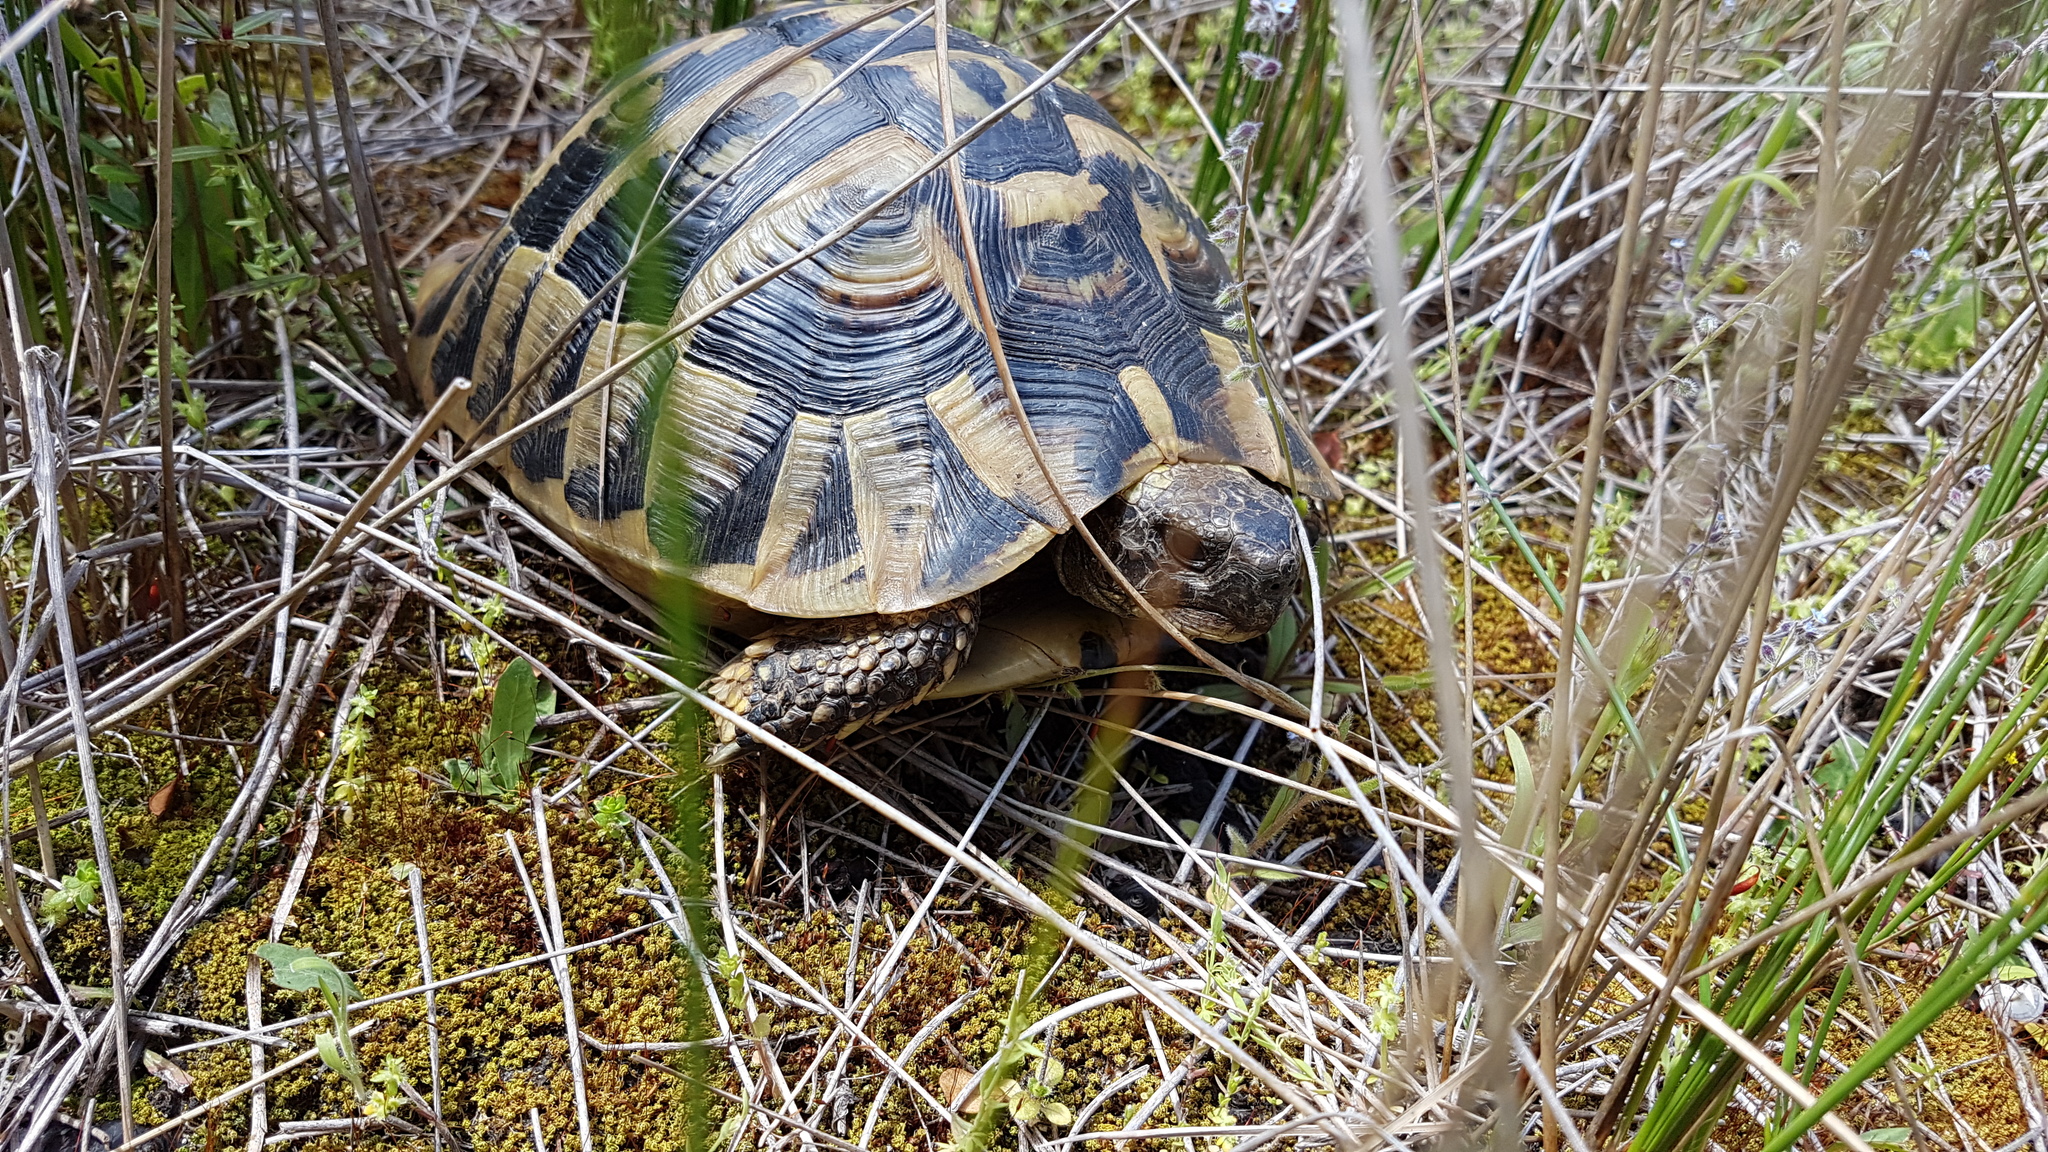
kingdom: Animalia
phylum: Chordata
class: Testudines
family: Testudinidae
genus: Testudo
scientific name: Testudo hermanni
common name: Hermann's tortoise
